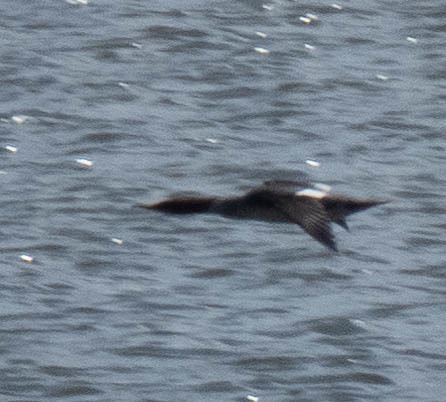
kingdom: Animalia
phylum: Chordata
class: Aves
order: Anseriformes
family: Anatidae
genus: Mergus
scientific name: Mergus merganser
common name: Common merganser
